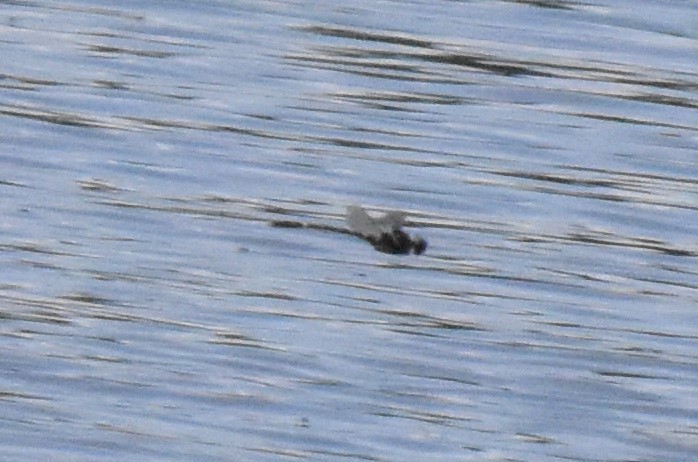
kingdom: Animalia
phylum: Arthropoda
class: Insecta
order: Odonata
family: Macromiidae
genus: Macromia
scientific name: Macromia illinoiensis
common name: Swift river cruiser
